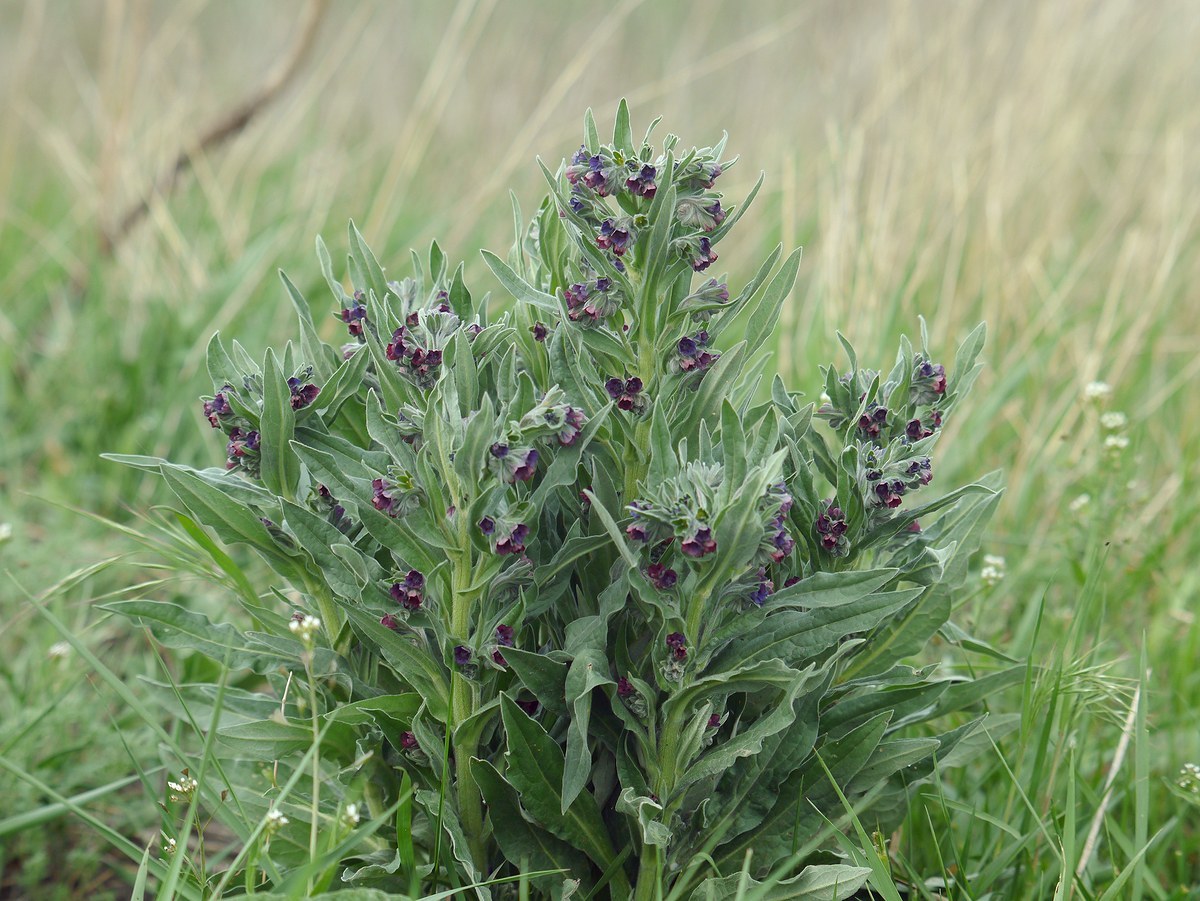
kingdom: Plantae
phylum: Tracheophyta
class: Magnoliopsida
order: Boraginales
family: Boraginaceae
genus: Cynoglossum
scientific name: Cynoglossum officinale
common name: Hound's-tongue
